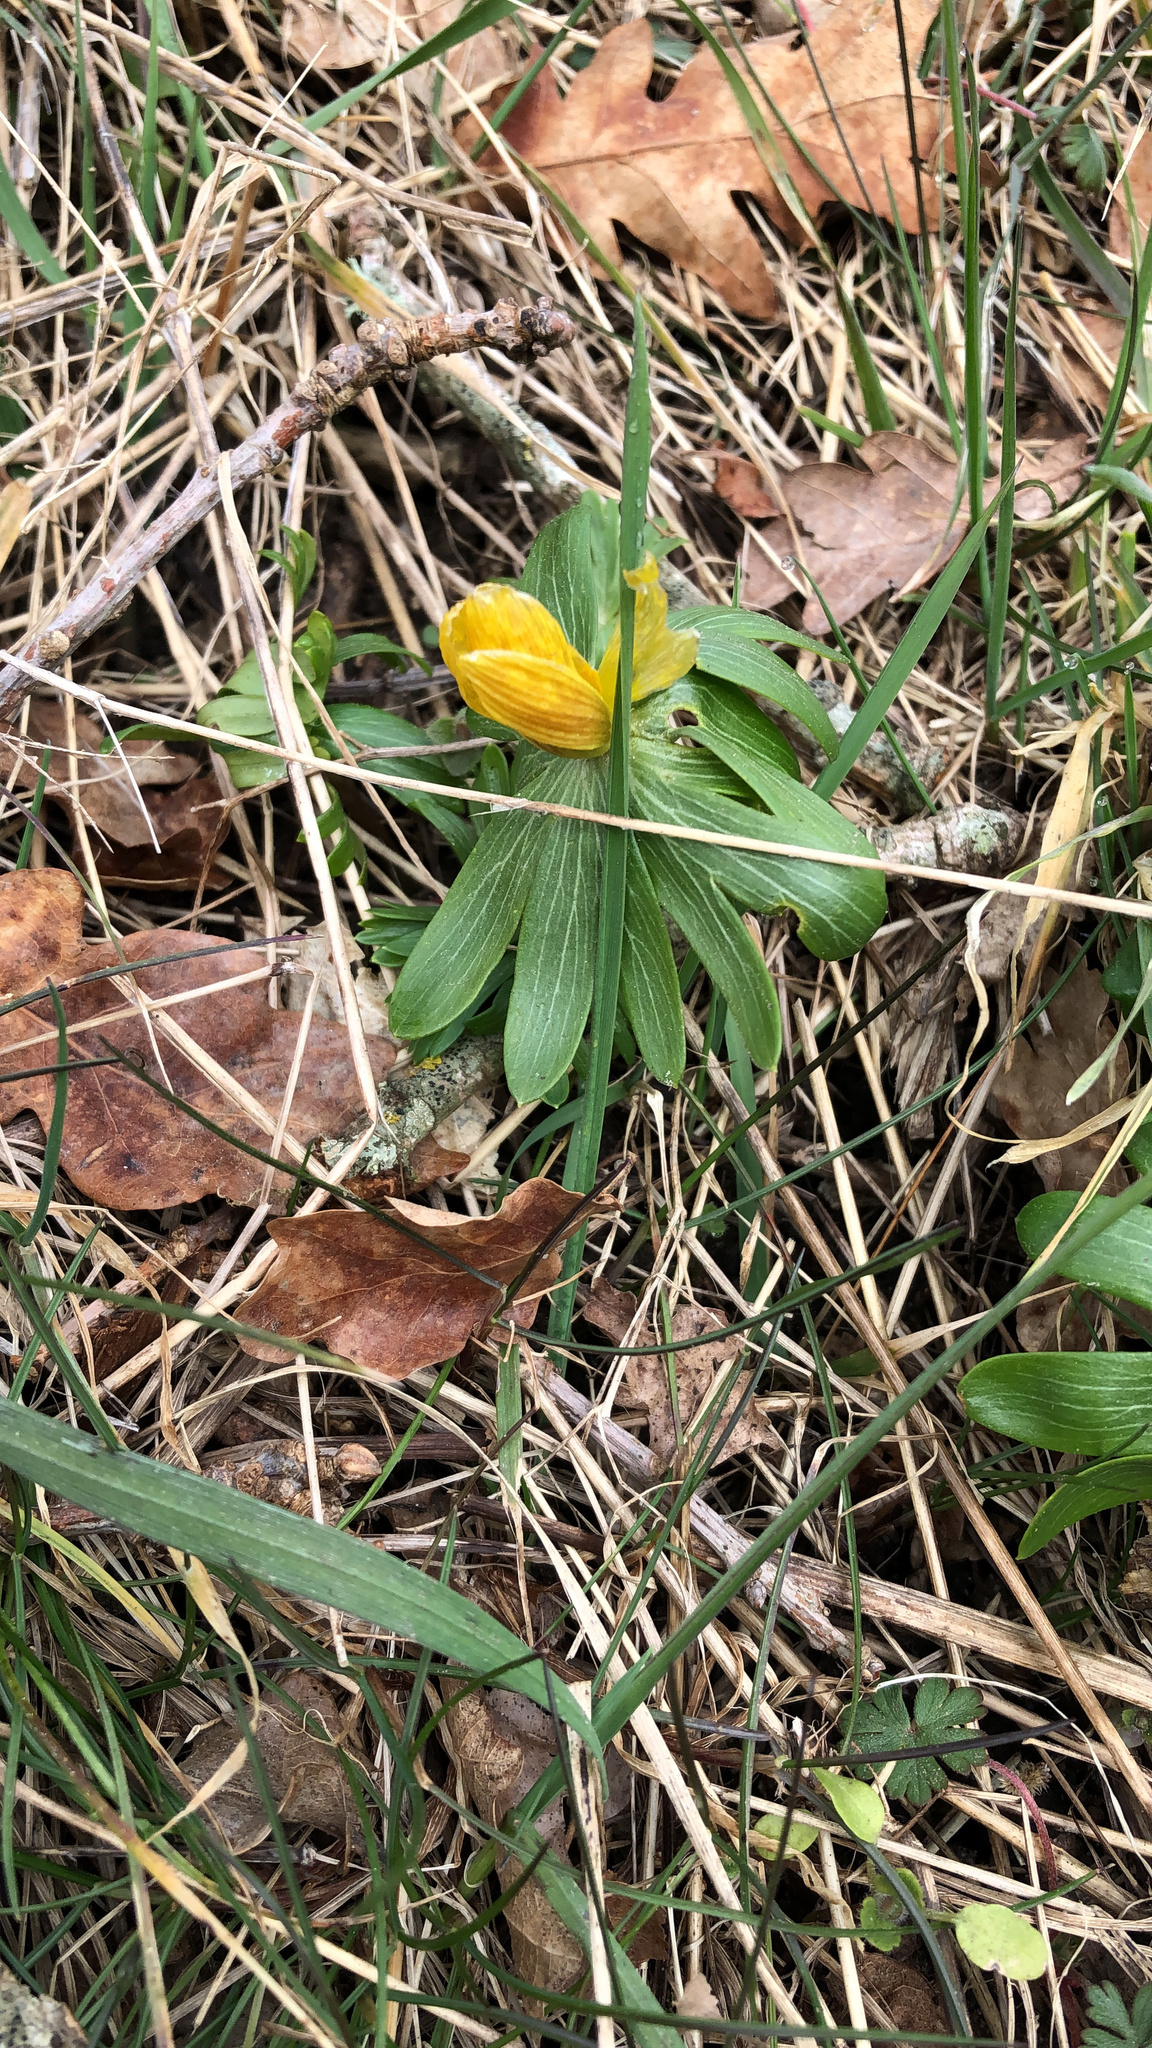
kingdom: Plantae
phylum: Tracheophyta
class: Magnoliopsida
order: Ranunculales
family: Ranunculaceae
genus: Eranthis
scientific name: Eranthis hyemalis
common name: Winter aconite
